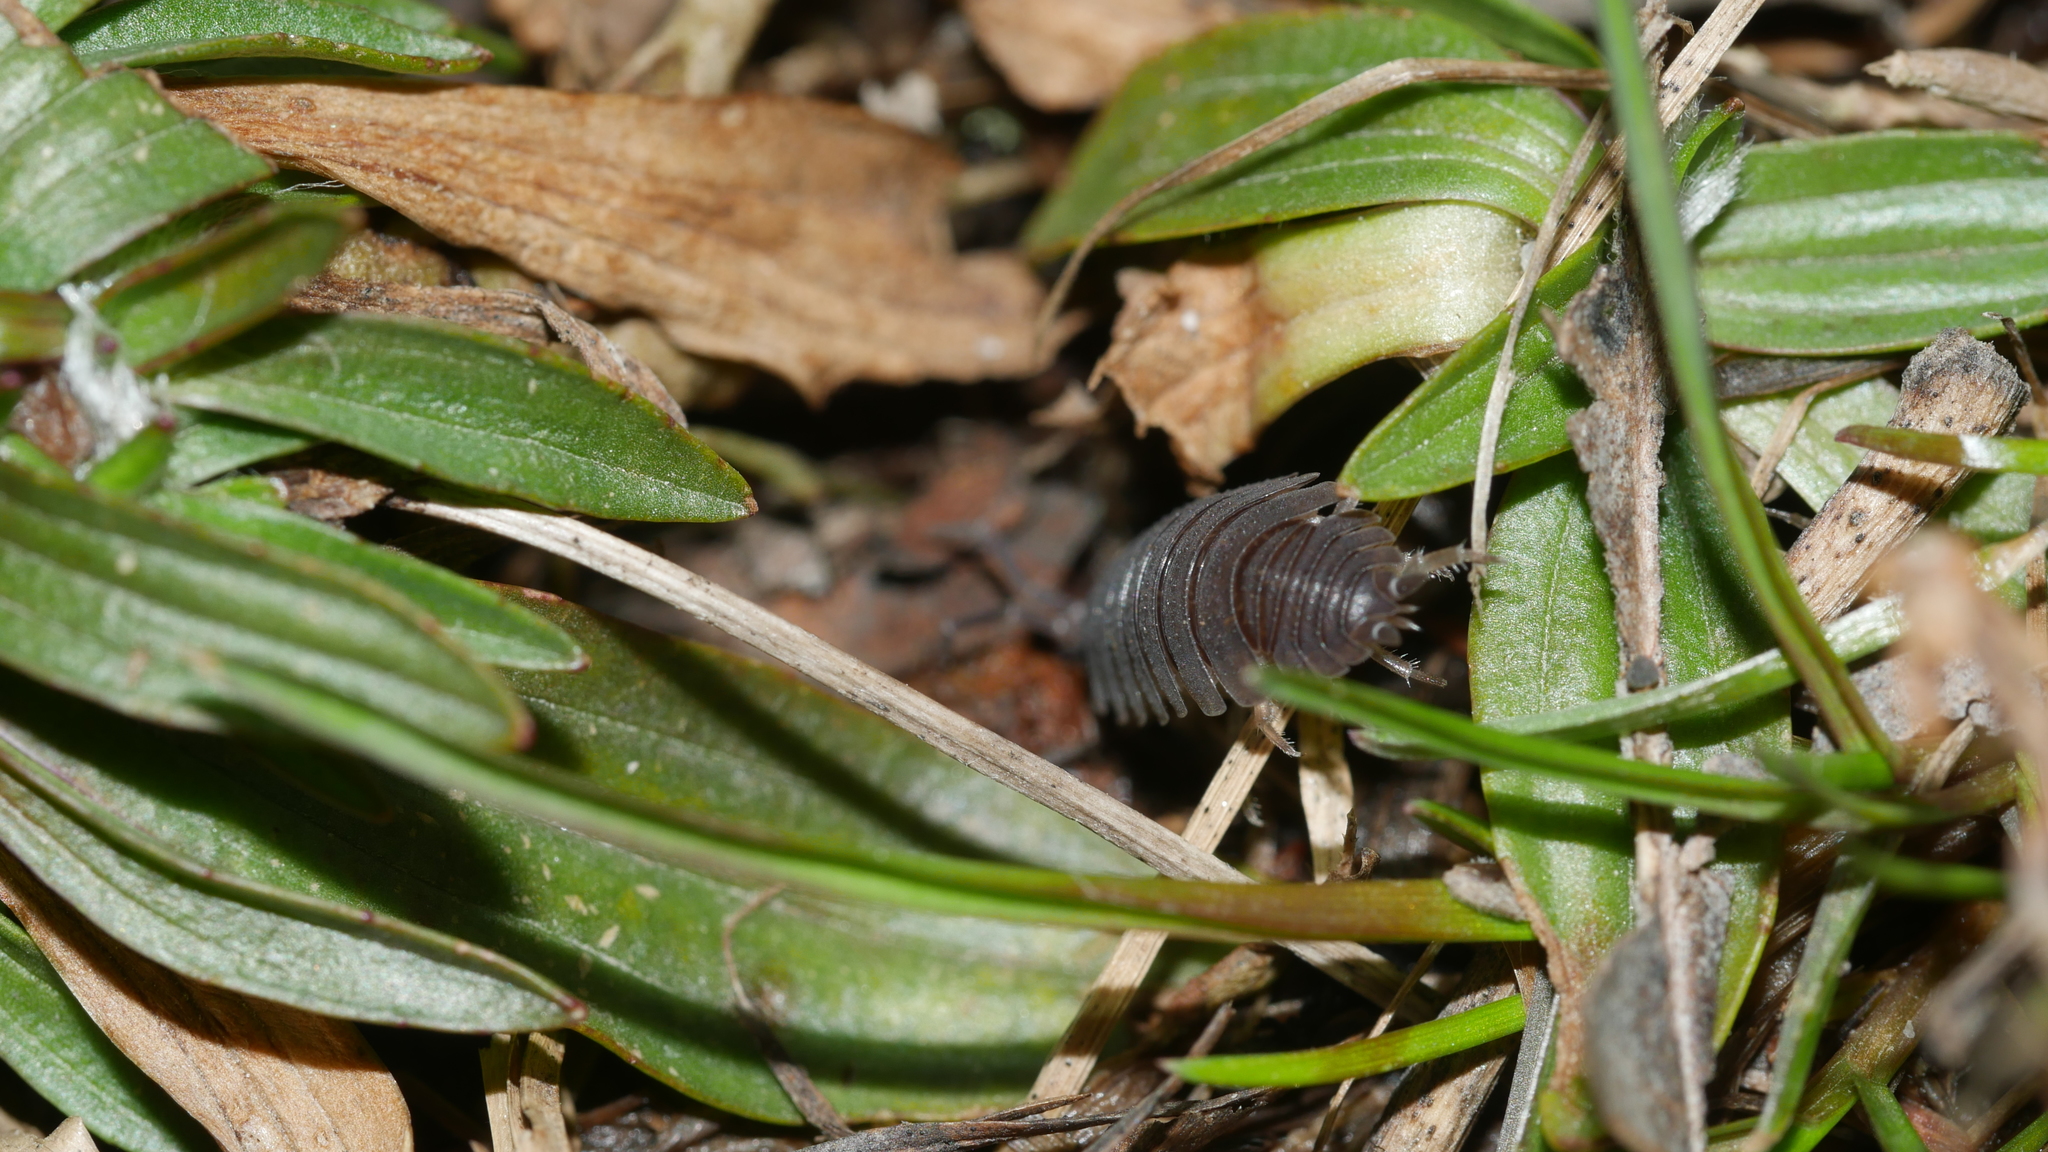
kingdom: Animalia
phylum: Arthropoda
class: Malacostraca
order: Isopoda
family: Porcellionidae
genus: Porcellio
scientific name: Porcellio scaber
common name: Common rough woodlouse
